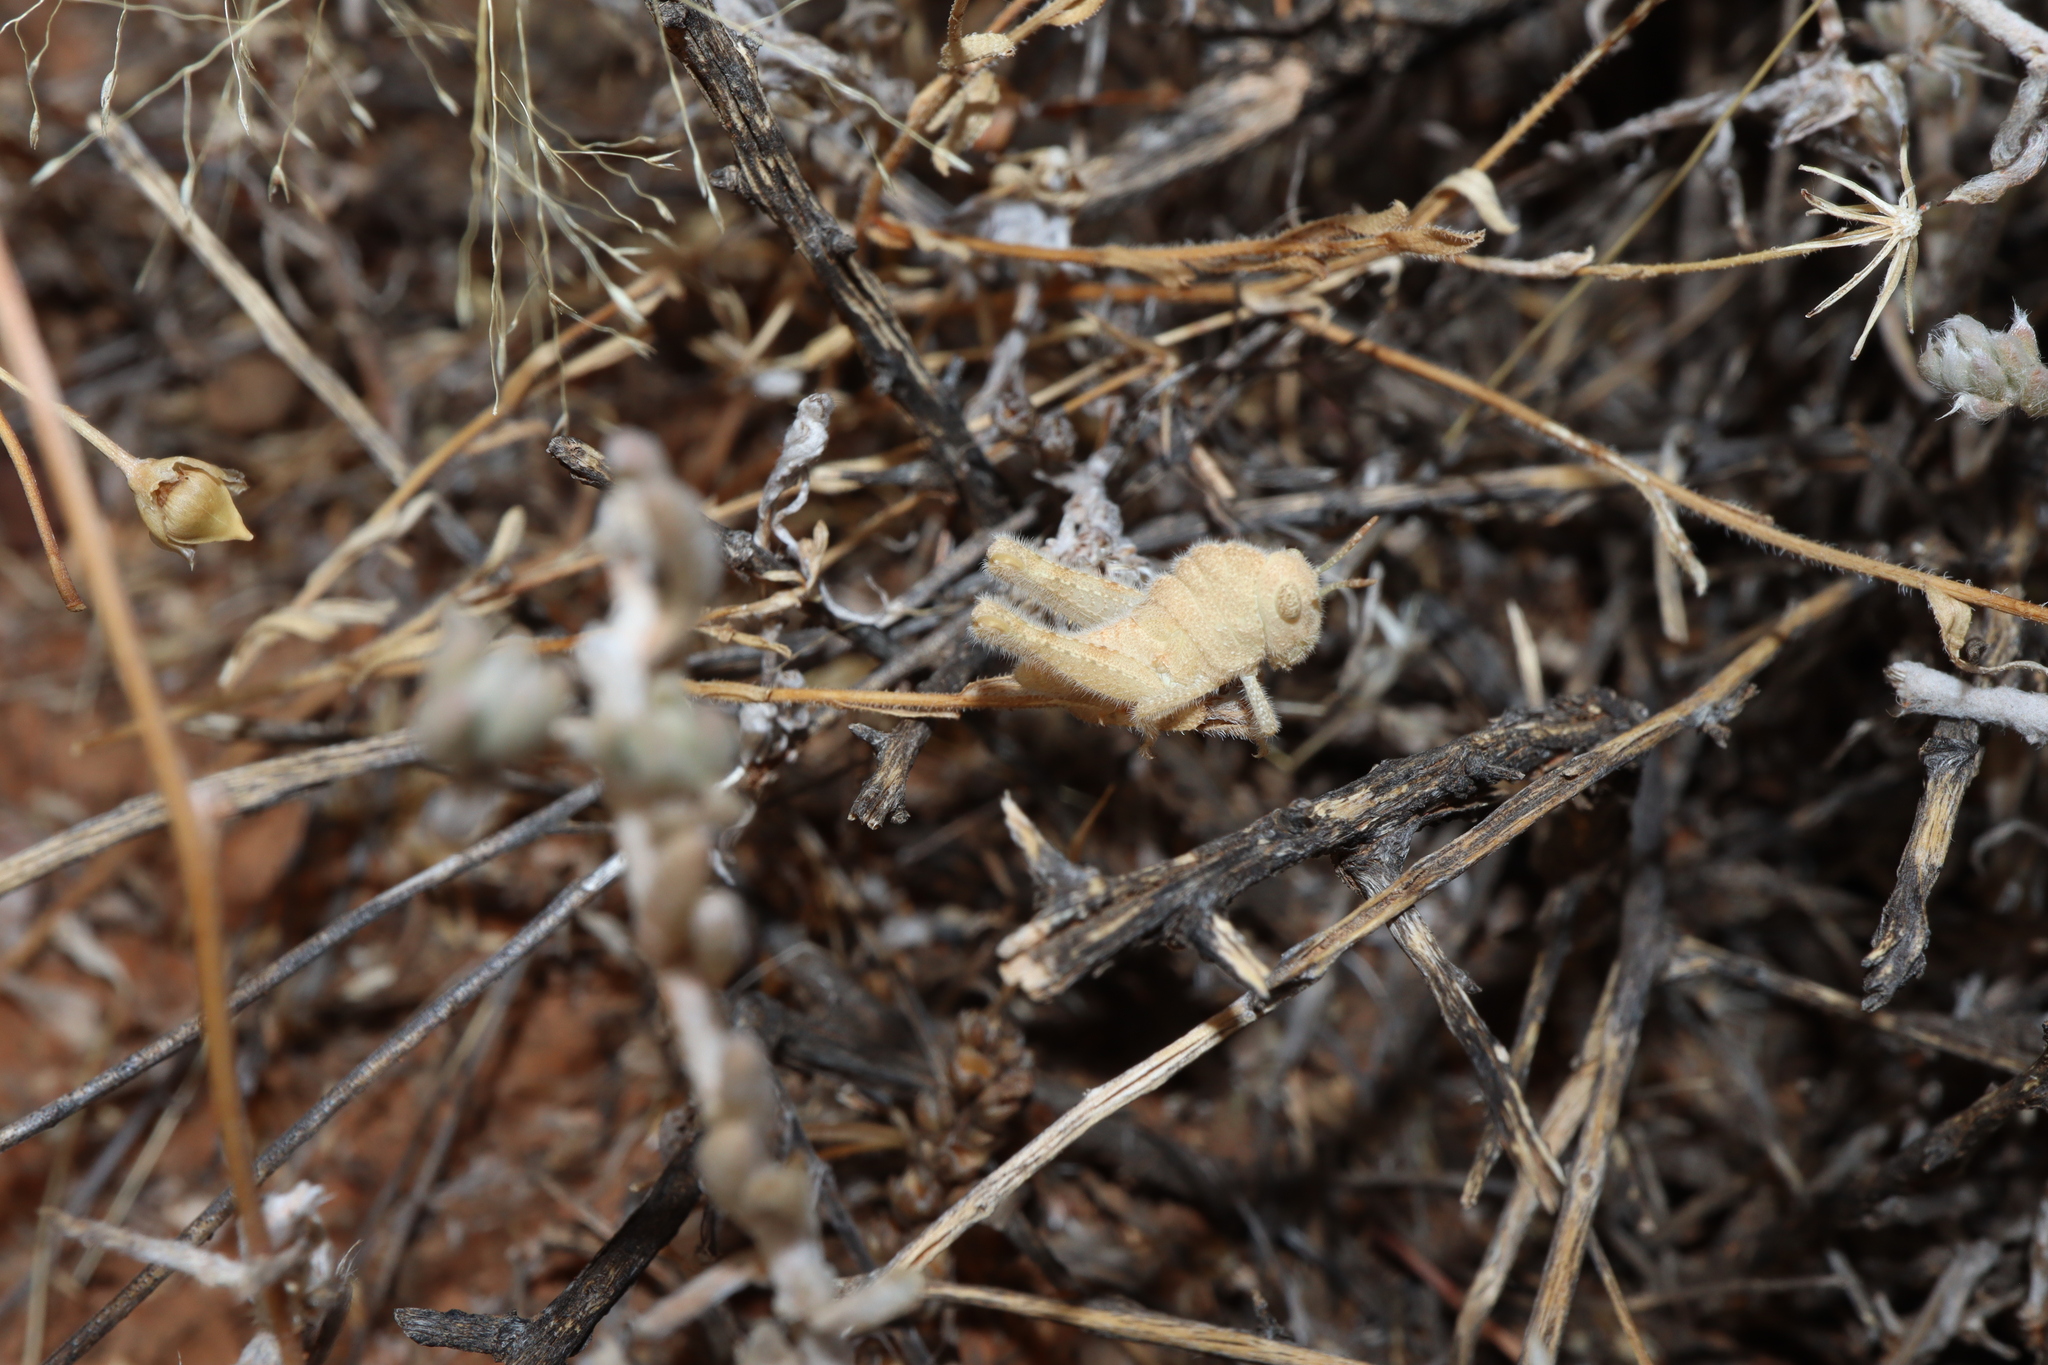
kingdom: Animalia
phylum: Arthropoda
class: Insecta
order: Orthoptera
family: Acrididae
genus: Ecphantus
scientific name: Ecphantus quadrilobus
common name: Crested tooth grinder
